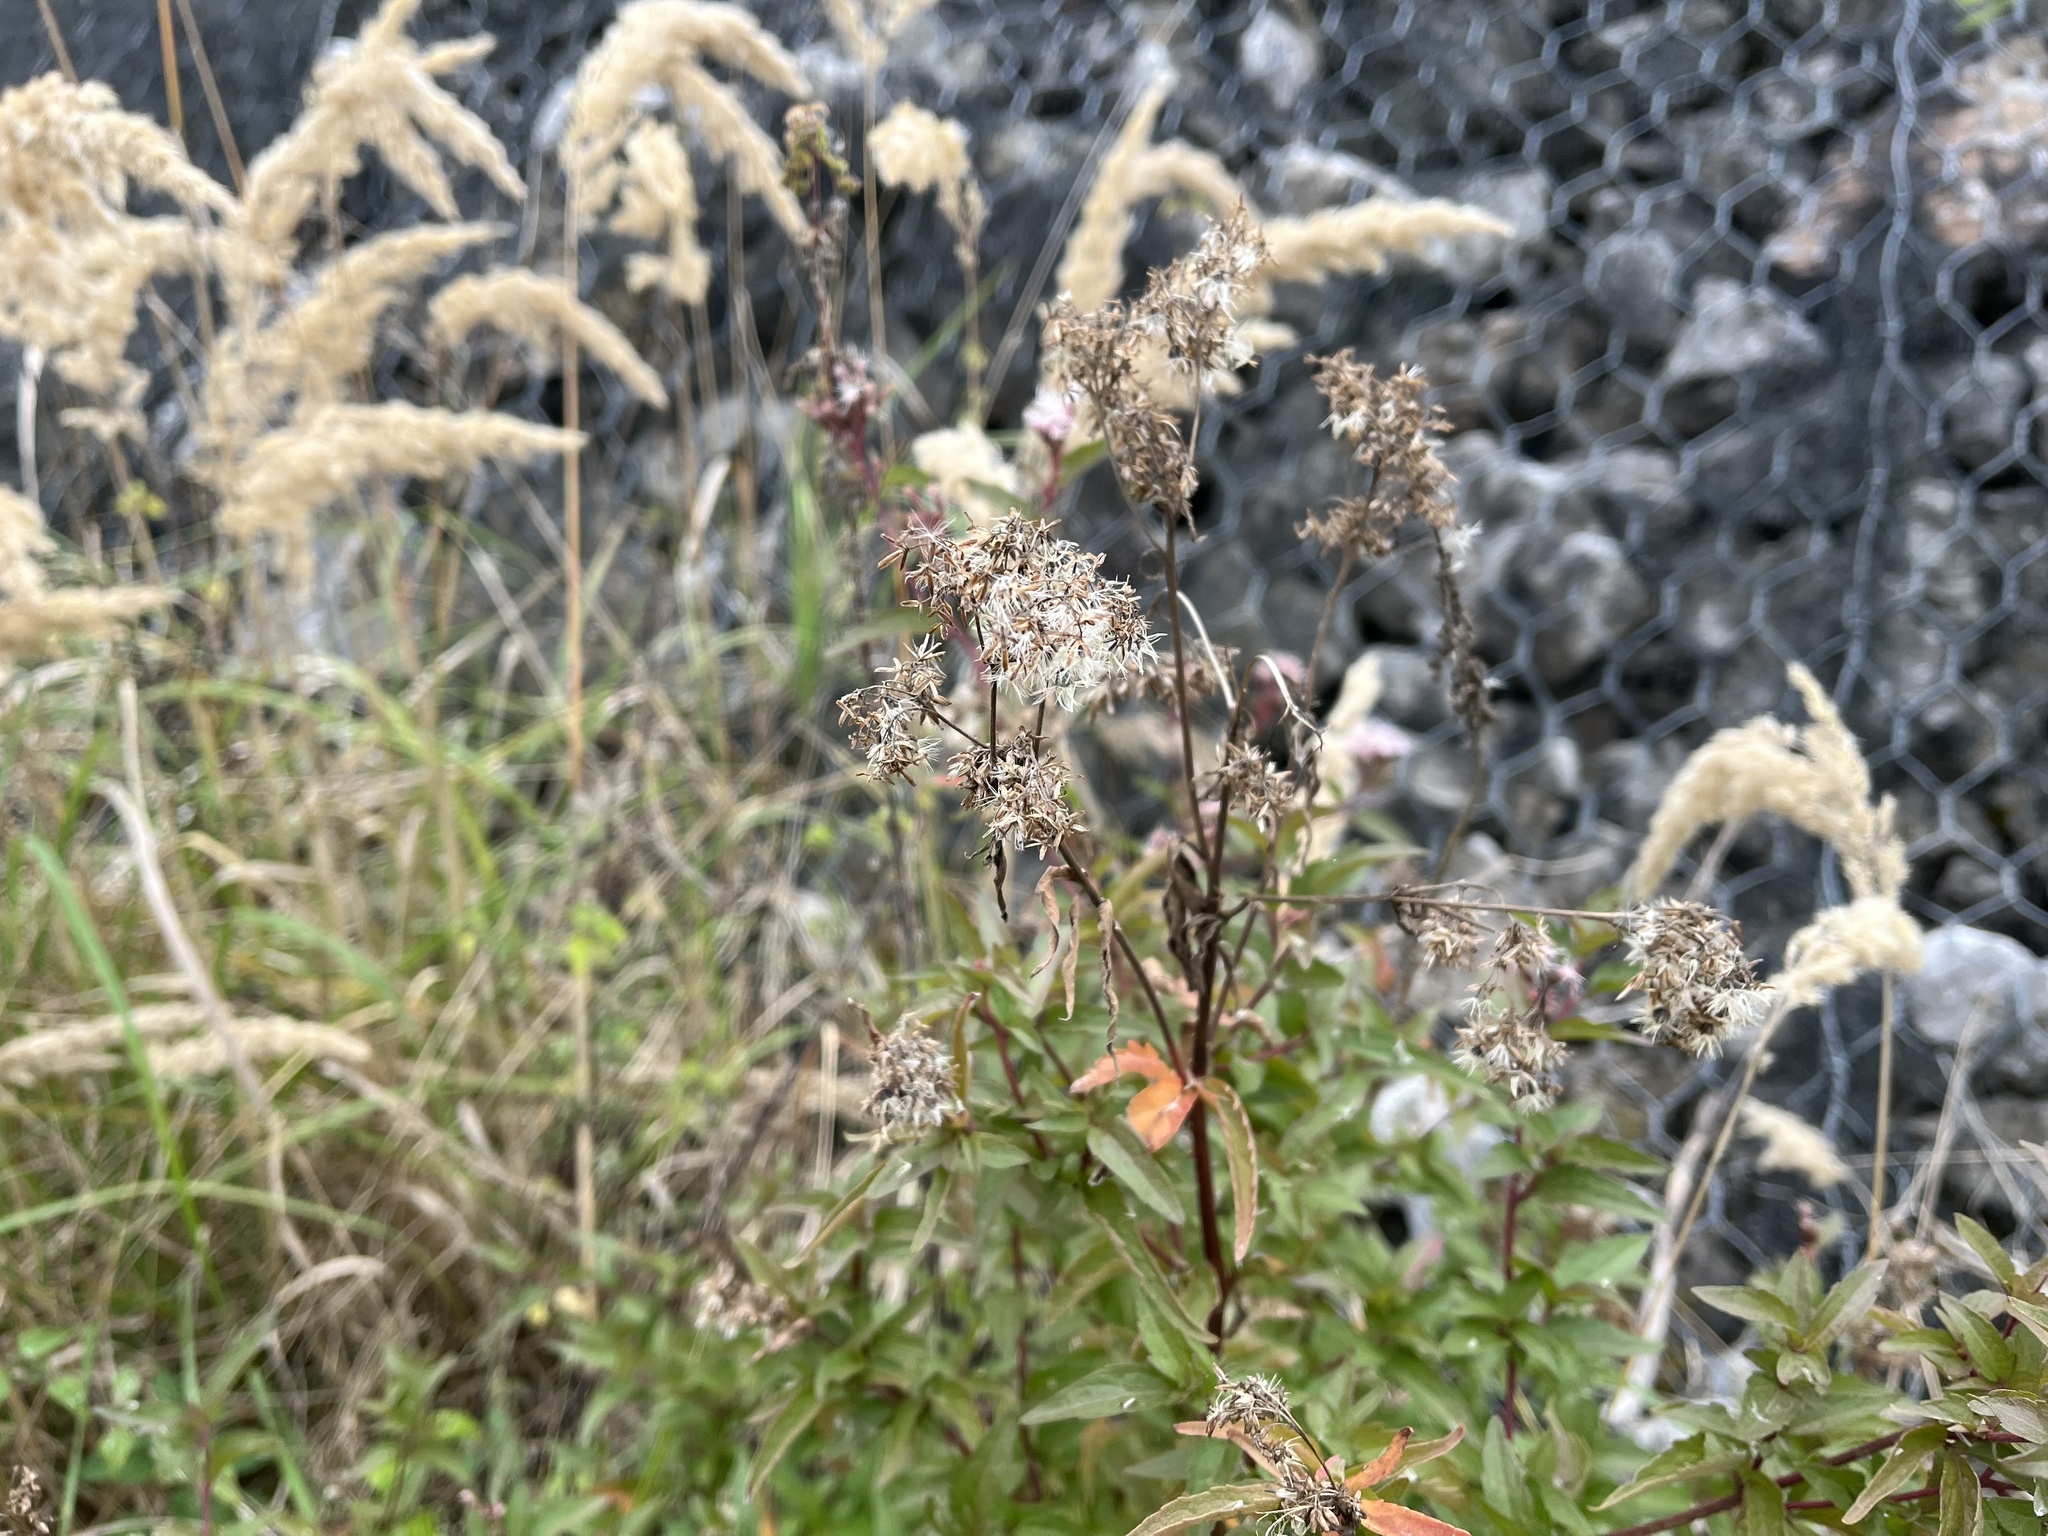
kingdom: Plantae
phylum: Tracheophyta
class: Magnoliopsida
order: Asterales
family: Asteraceae
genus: Eupatorium
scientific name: Eupatorium cannabinum
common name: Hemp-agrimony
